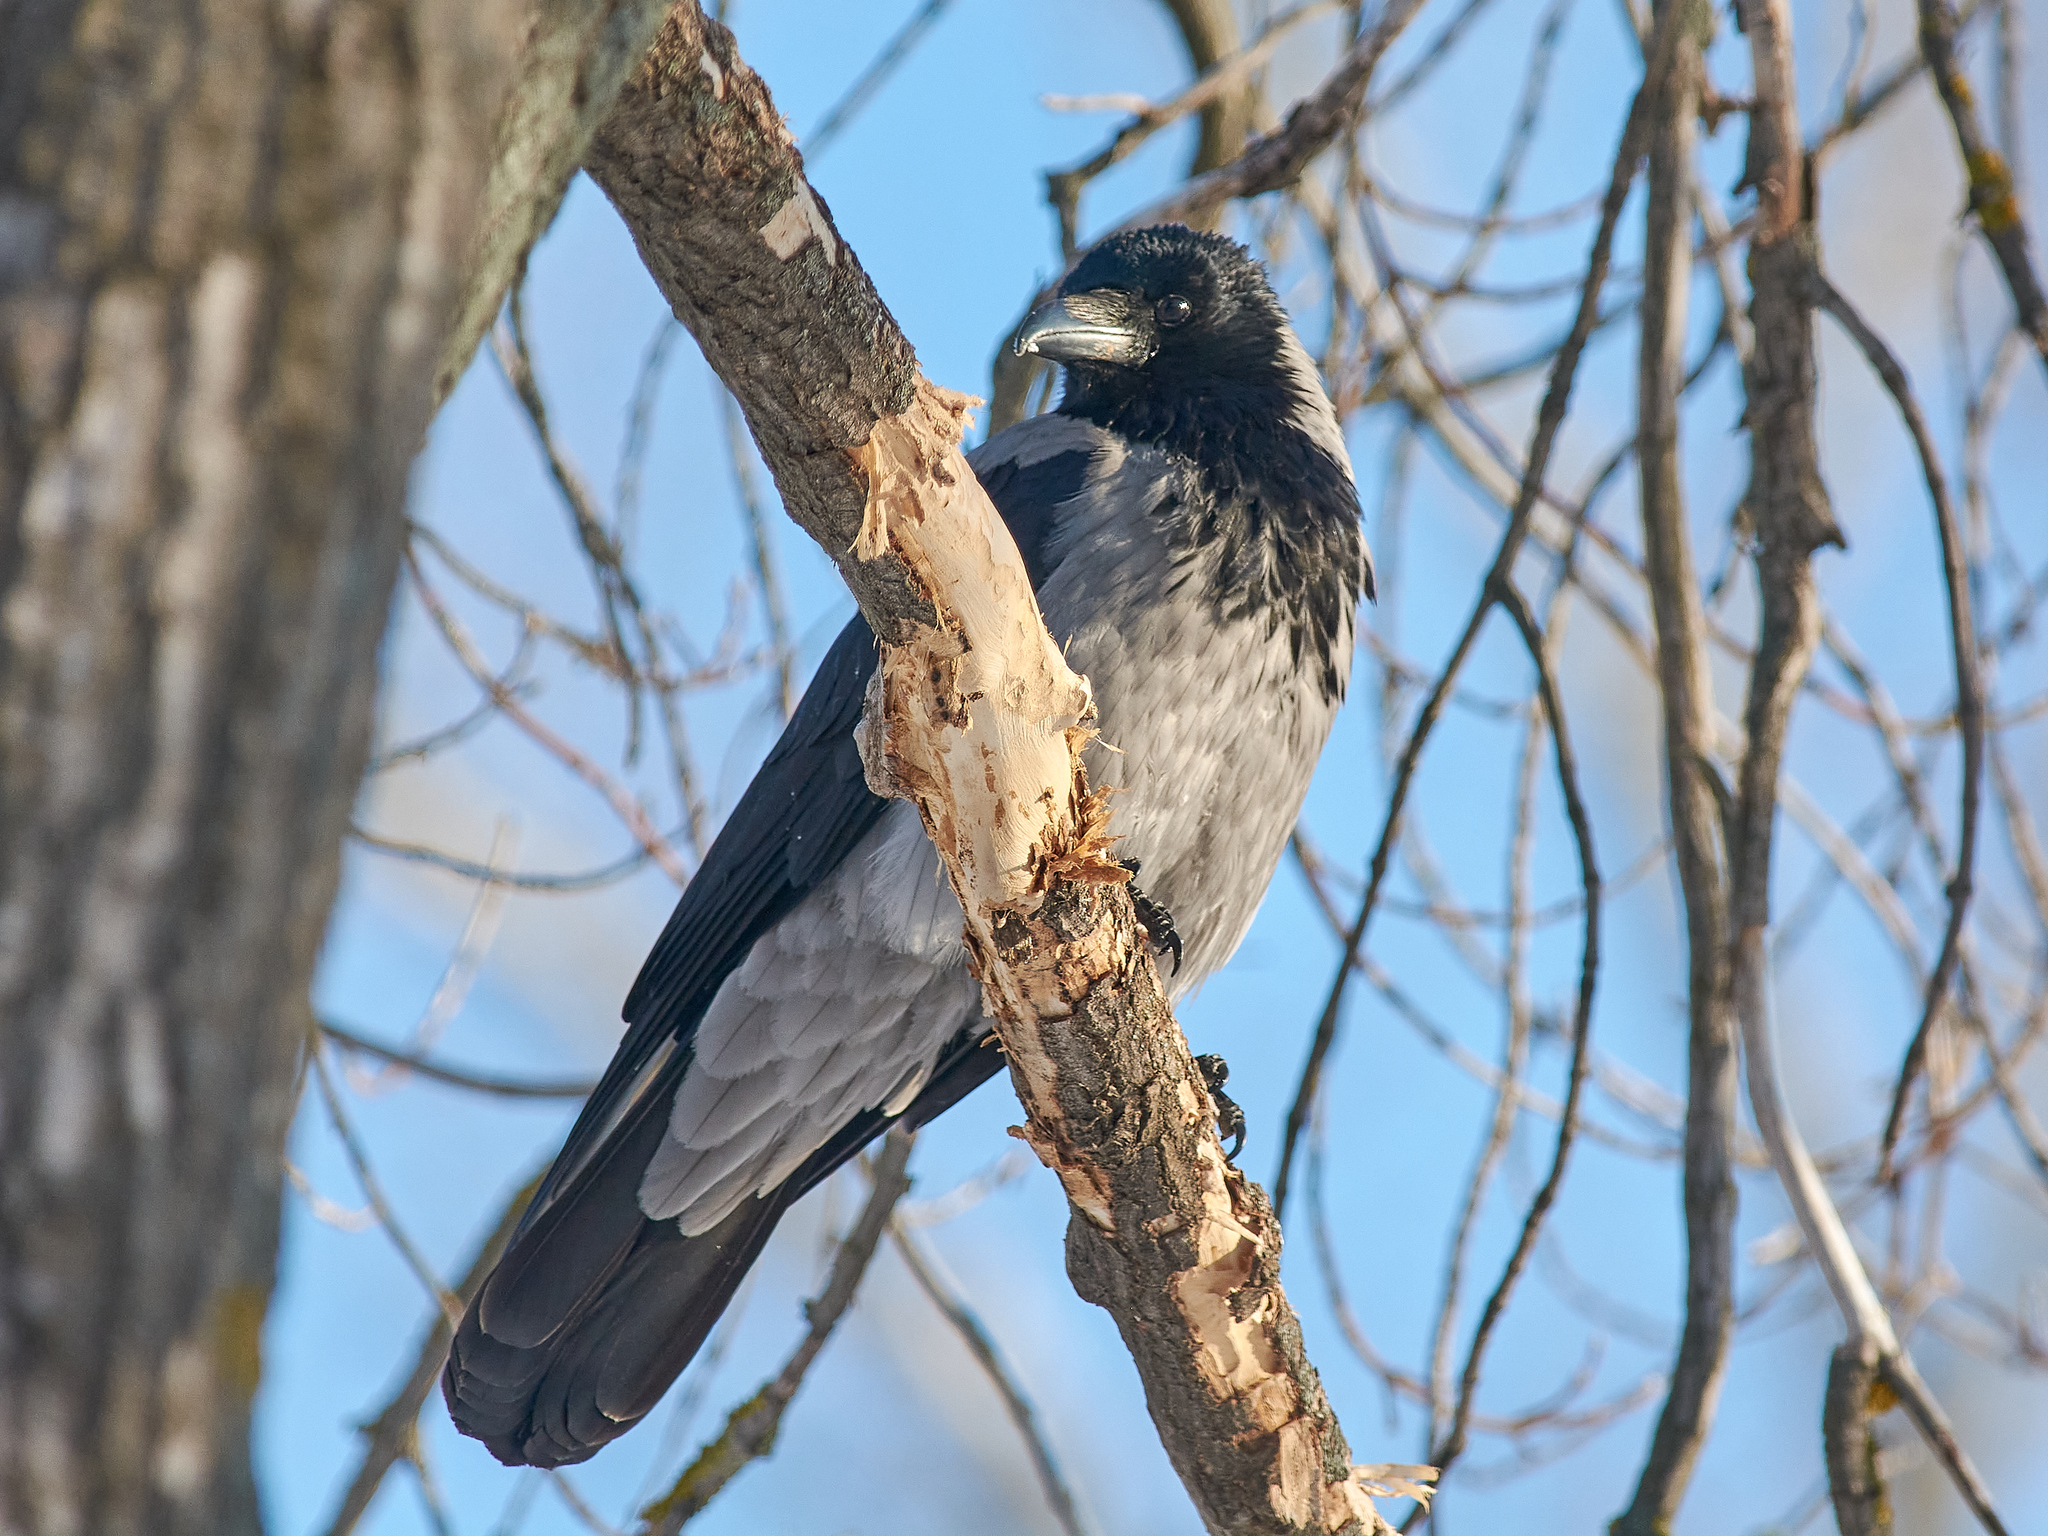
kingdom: Animalia
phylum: Chordata
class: Aves
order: Passeriformes
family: Corvidae
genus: Corvus
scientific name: Corvus cornix
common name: Hooded crow
